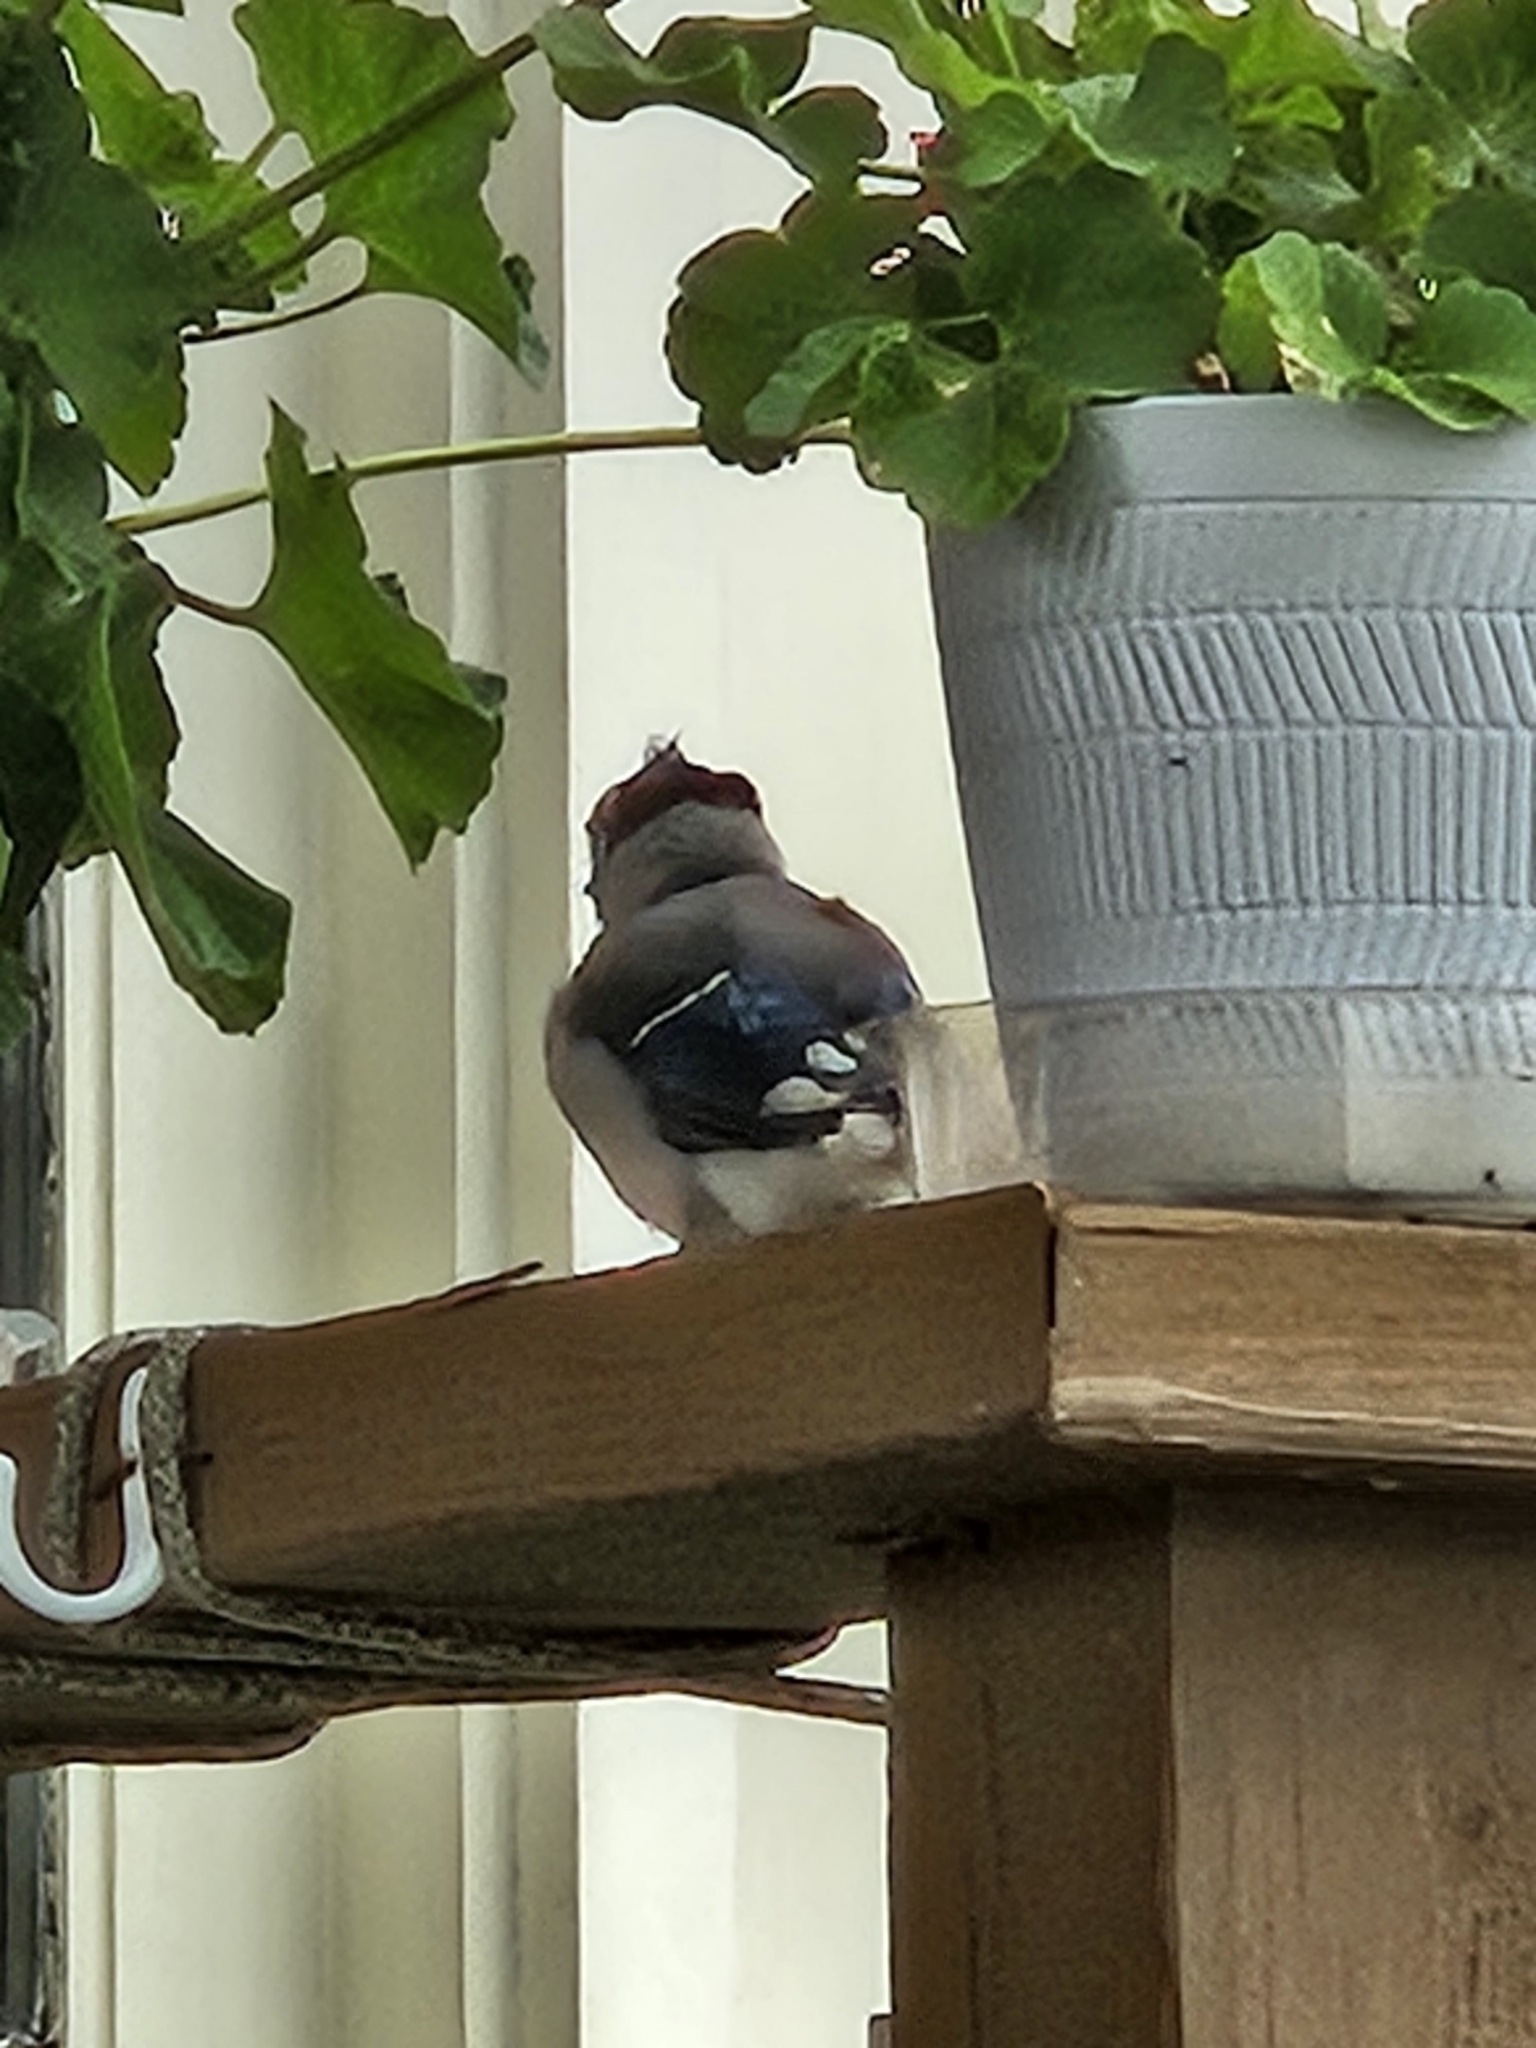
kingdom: Animalia
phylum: Chordata
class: Aves
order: Passeriformes
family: Corvidae
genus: Cyanocitta
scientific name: Cyanocitta cristata
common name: Blue jay
